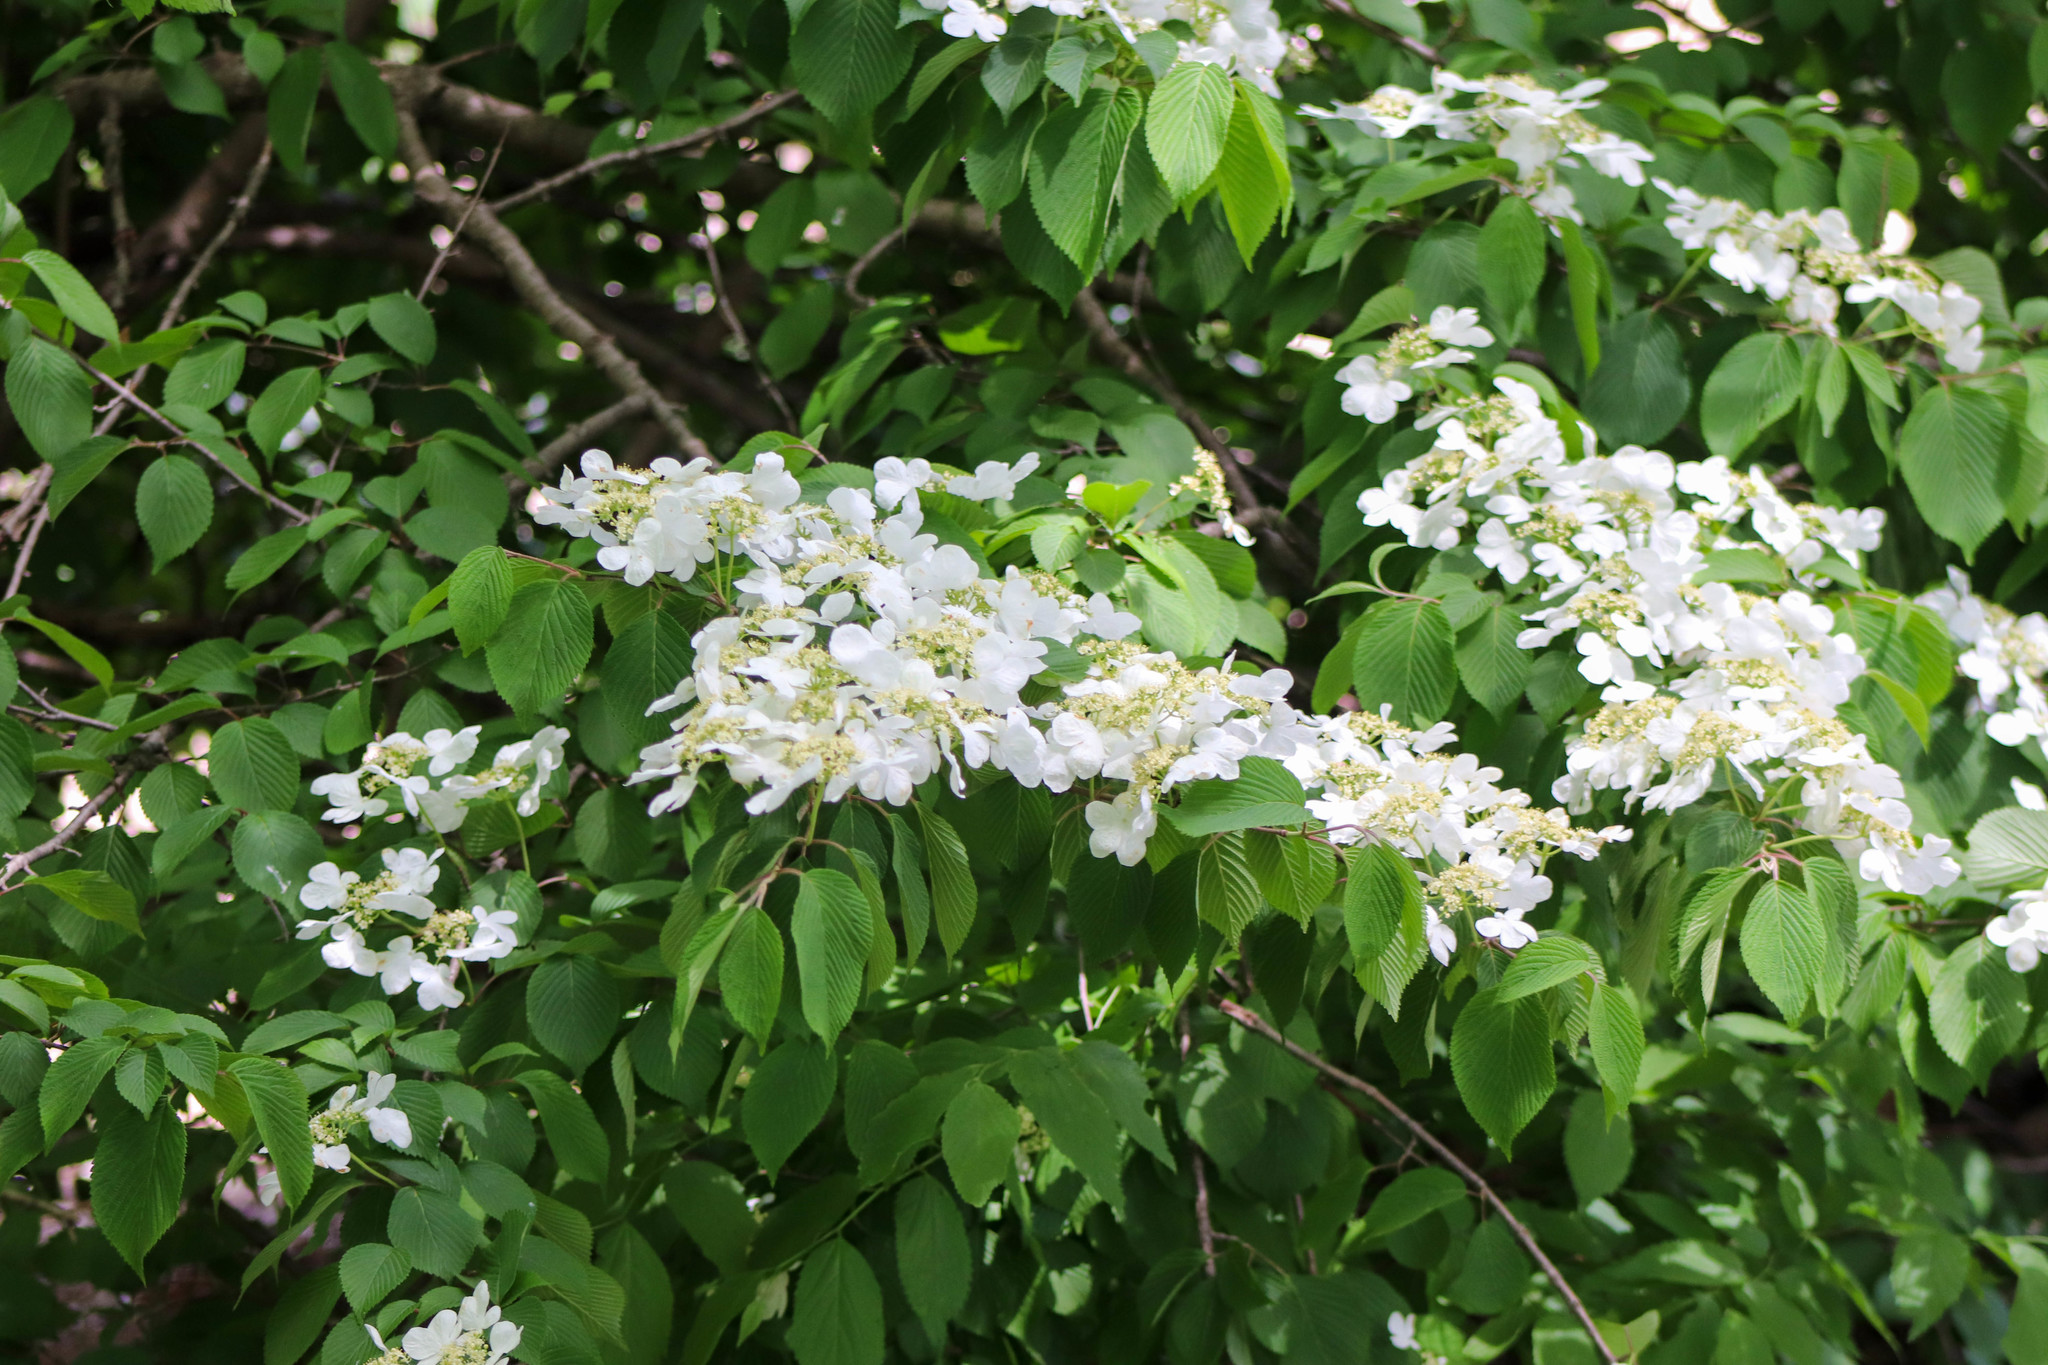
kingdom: Plantae
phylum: Tracheophyta
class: Magnoliopsida
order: Dipsacales
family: Viburnaceae
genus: Viburnum
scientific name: Viburnum plicatum
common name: Japanese snowball
